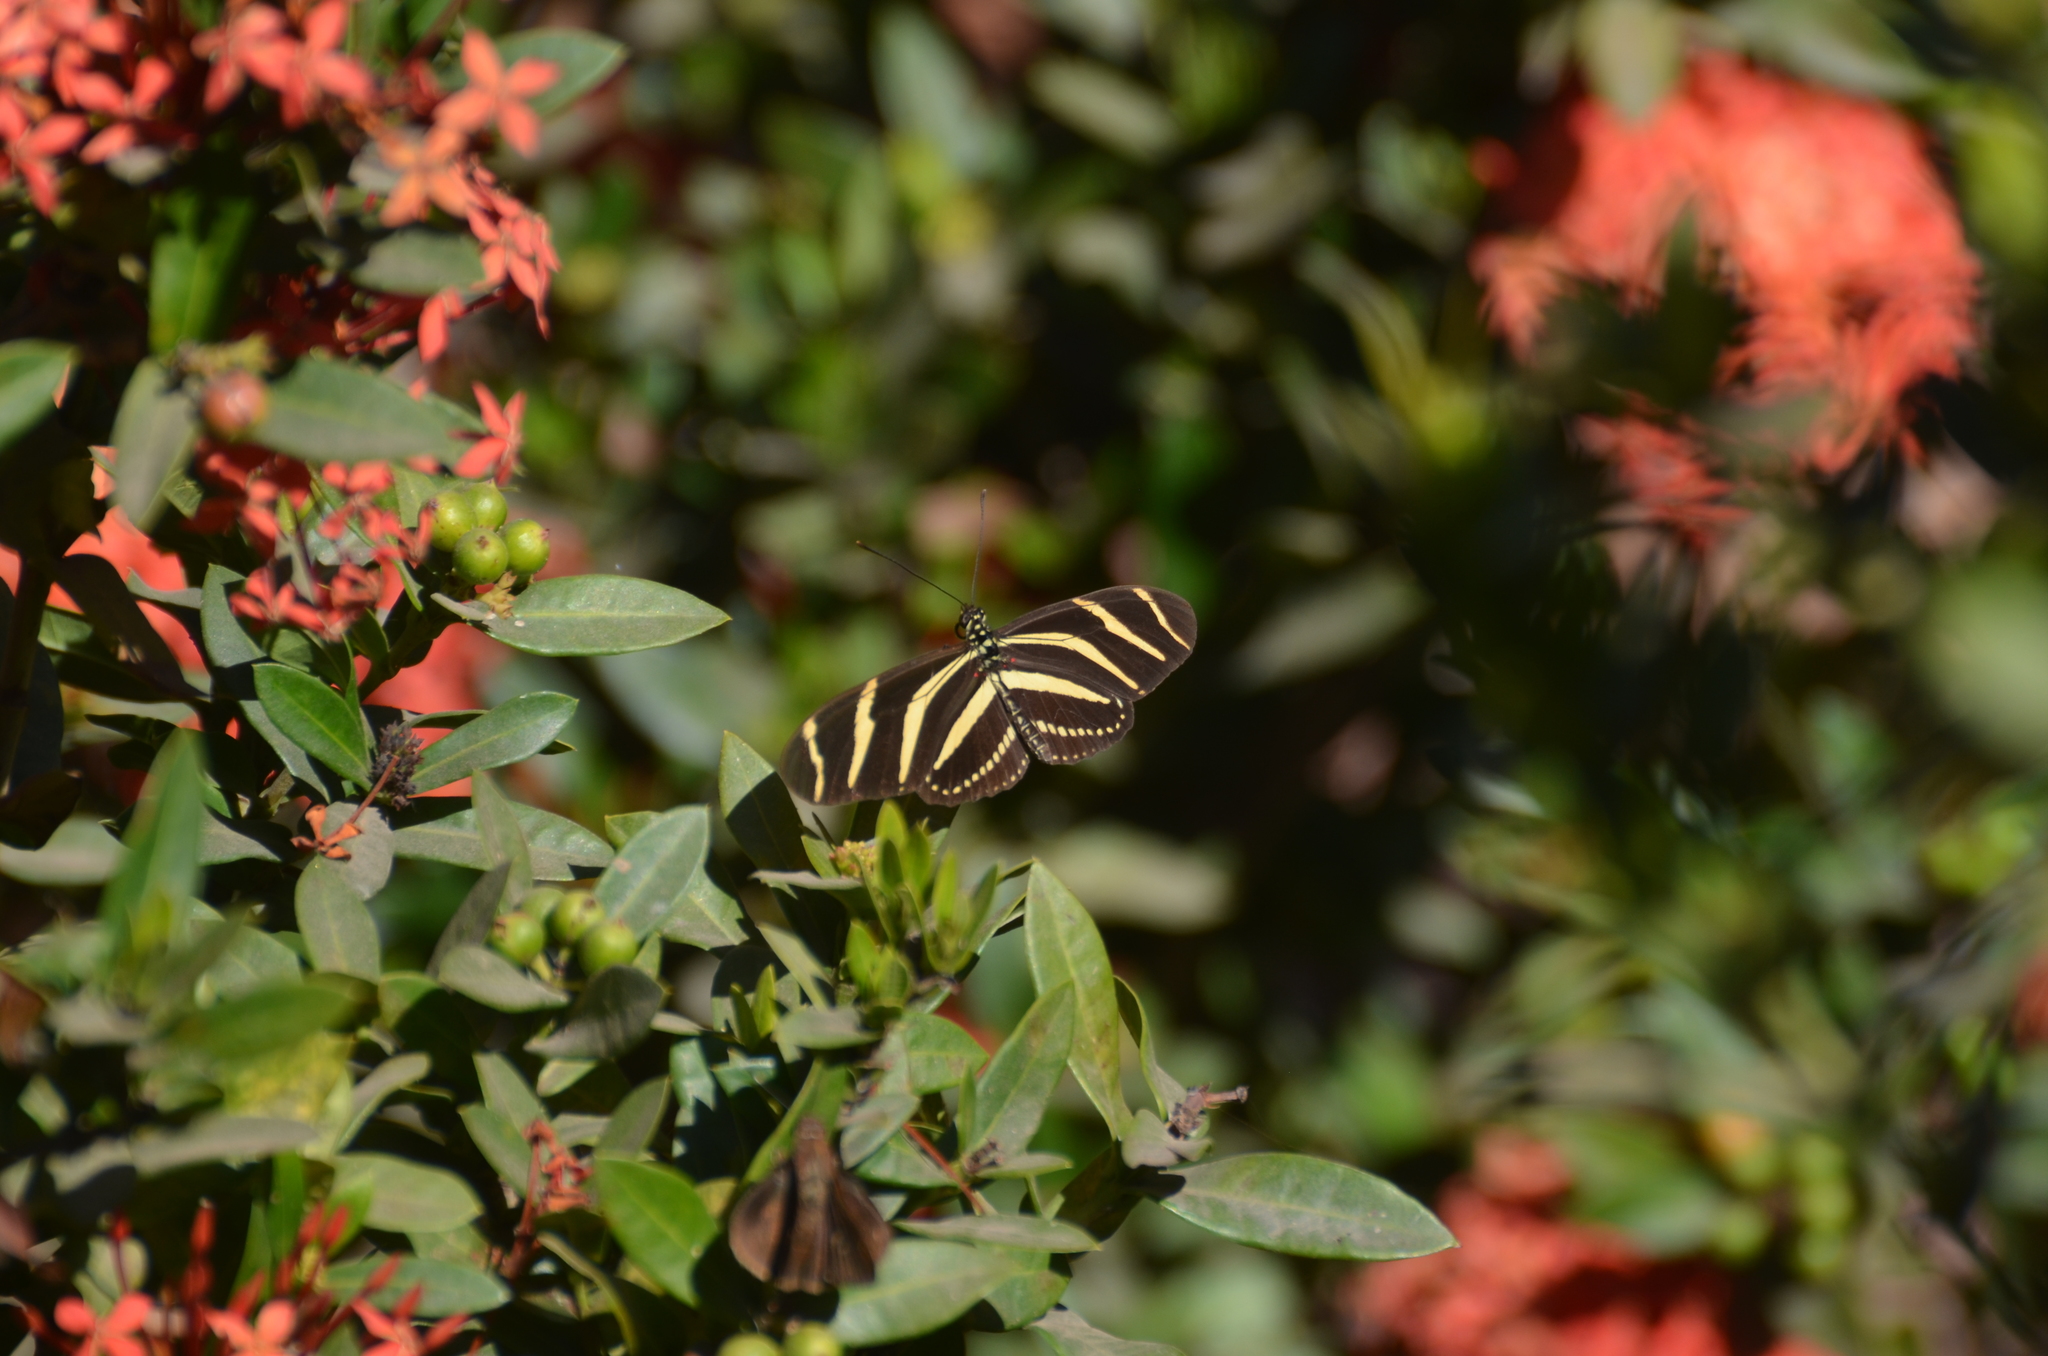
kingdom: Animalia
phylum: Arthropoda
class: Insecta
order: Lepidoptera
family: Nymphalidae
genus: Heliconius
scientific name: Heliconius charithonia
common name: Zebra long wing
